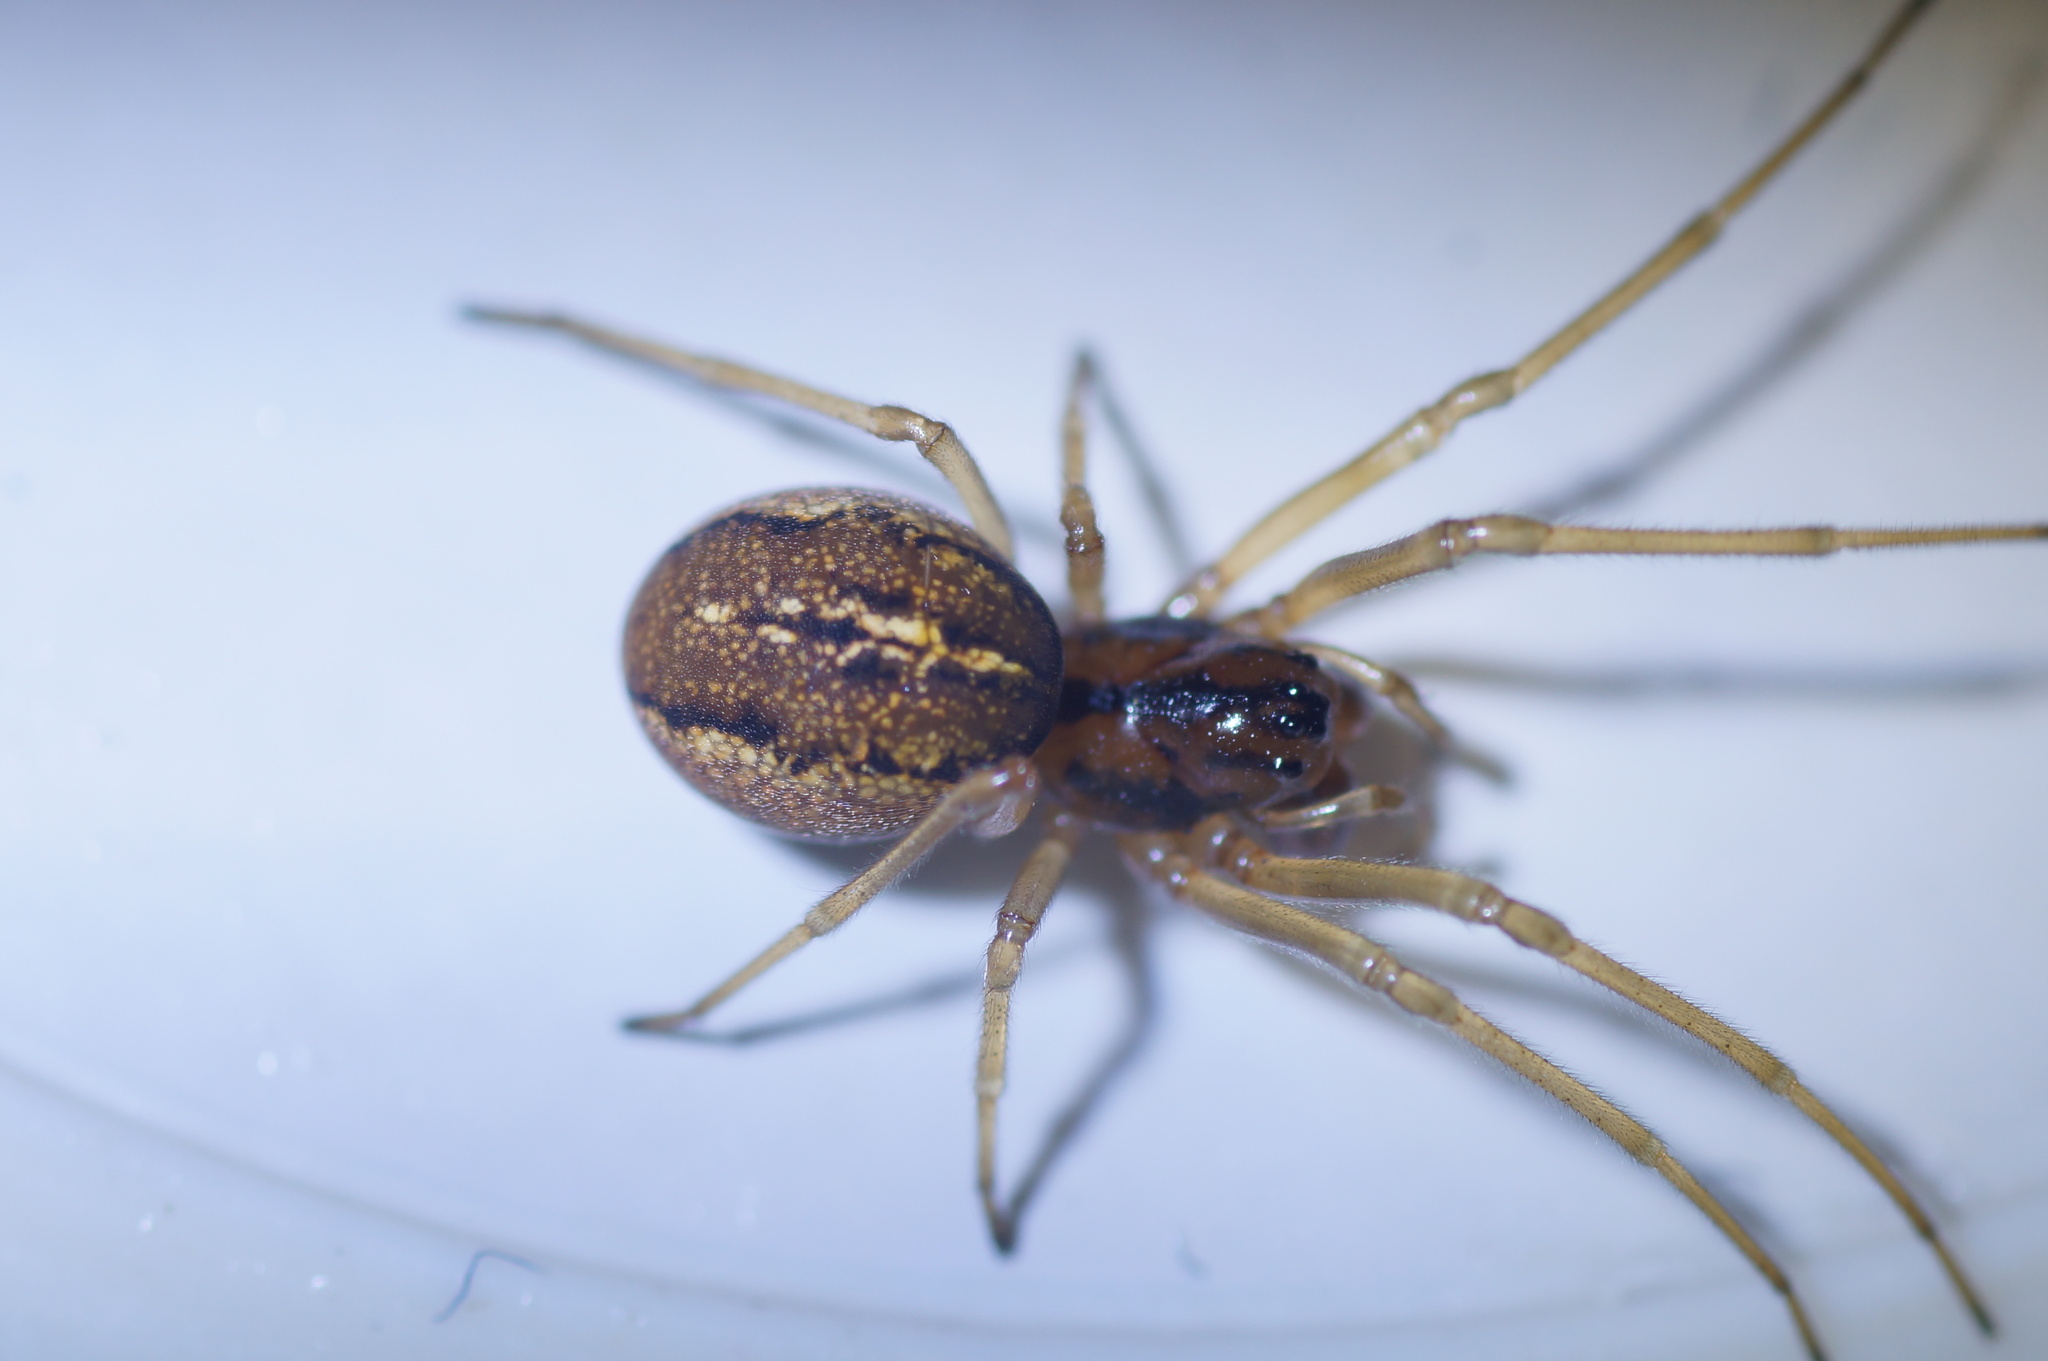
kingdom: Animalia
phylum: Arthropoda
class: Arachnida
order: Araneae
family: Tetragnathidae
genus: Pachygnatha
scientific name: Pachygnatha clercki
